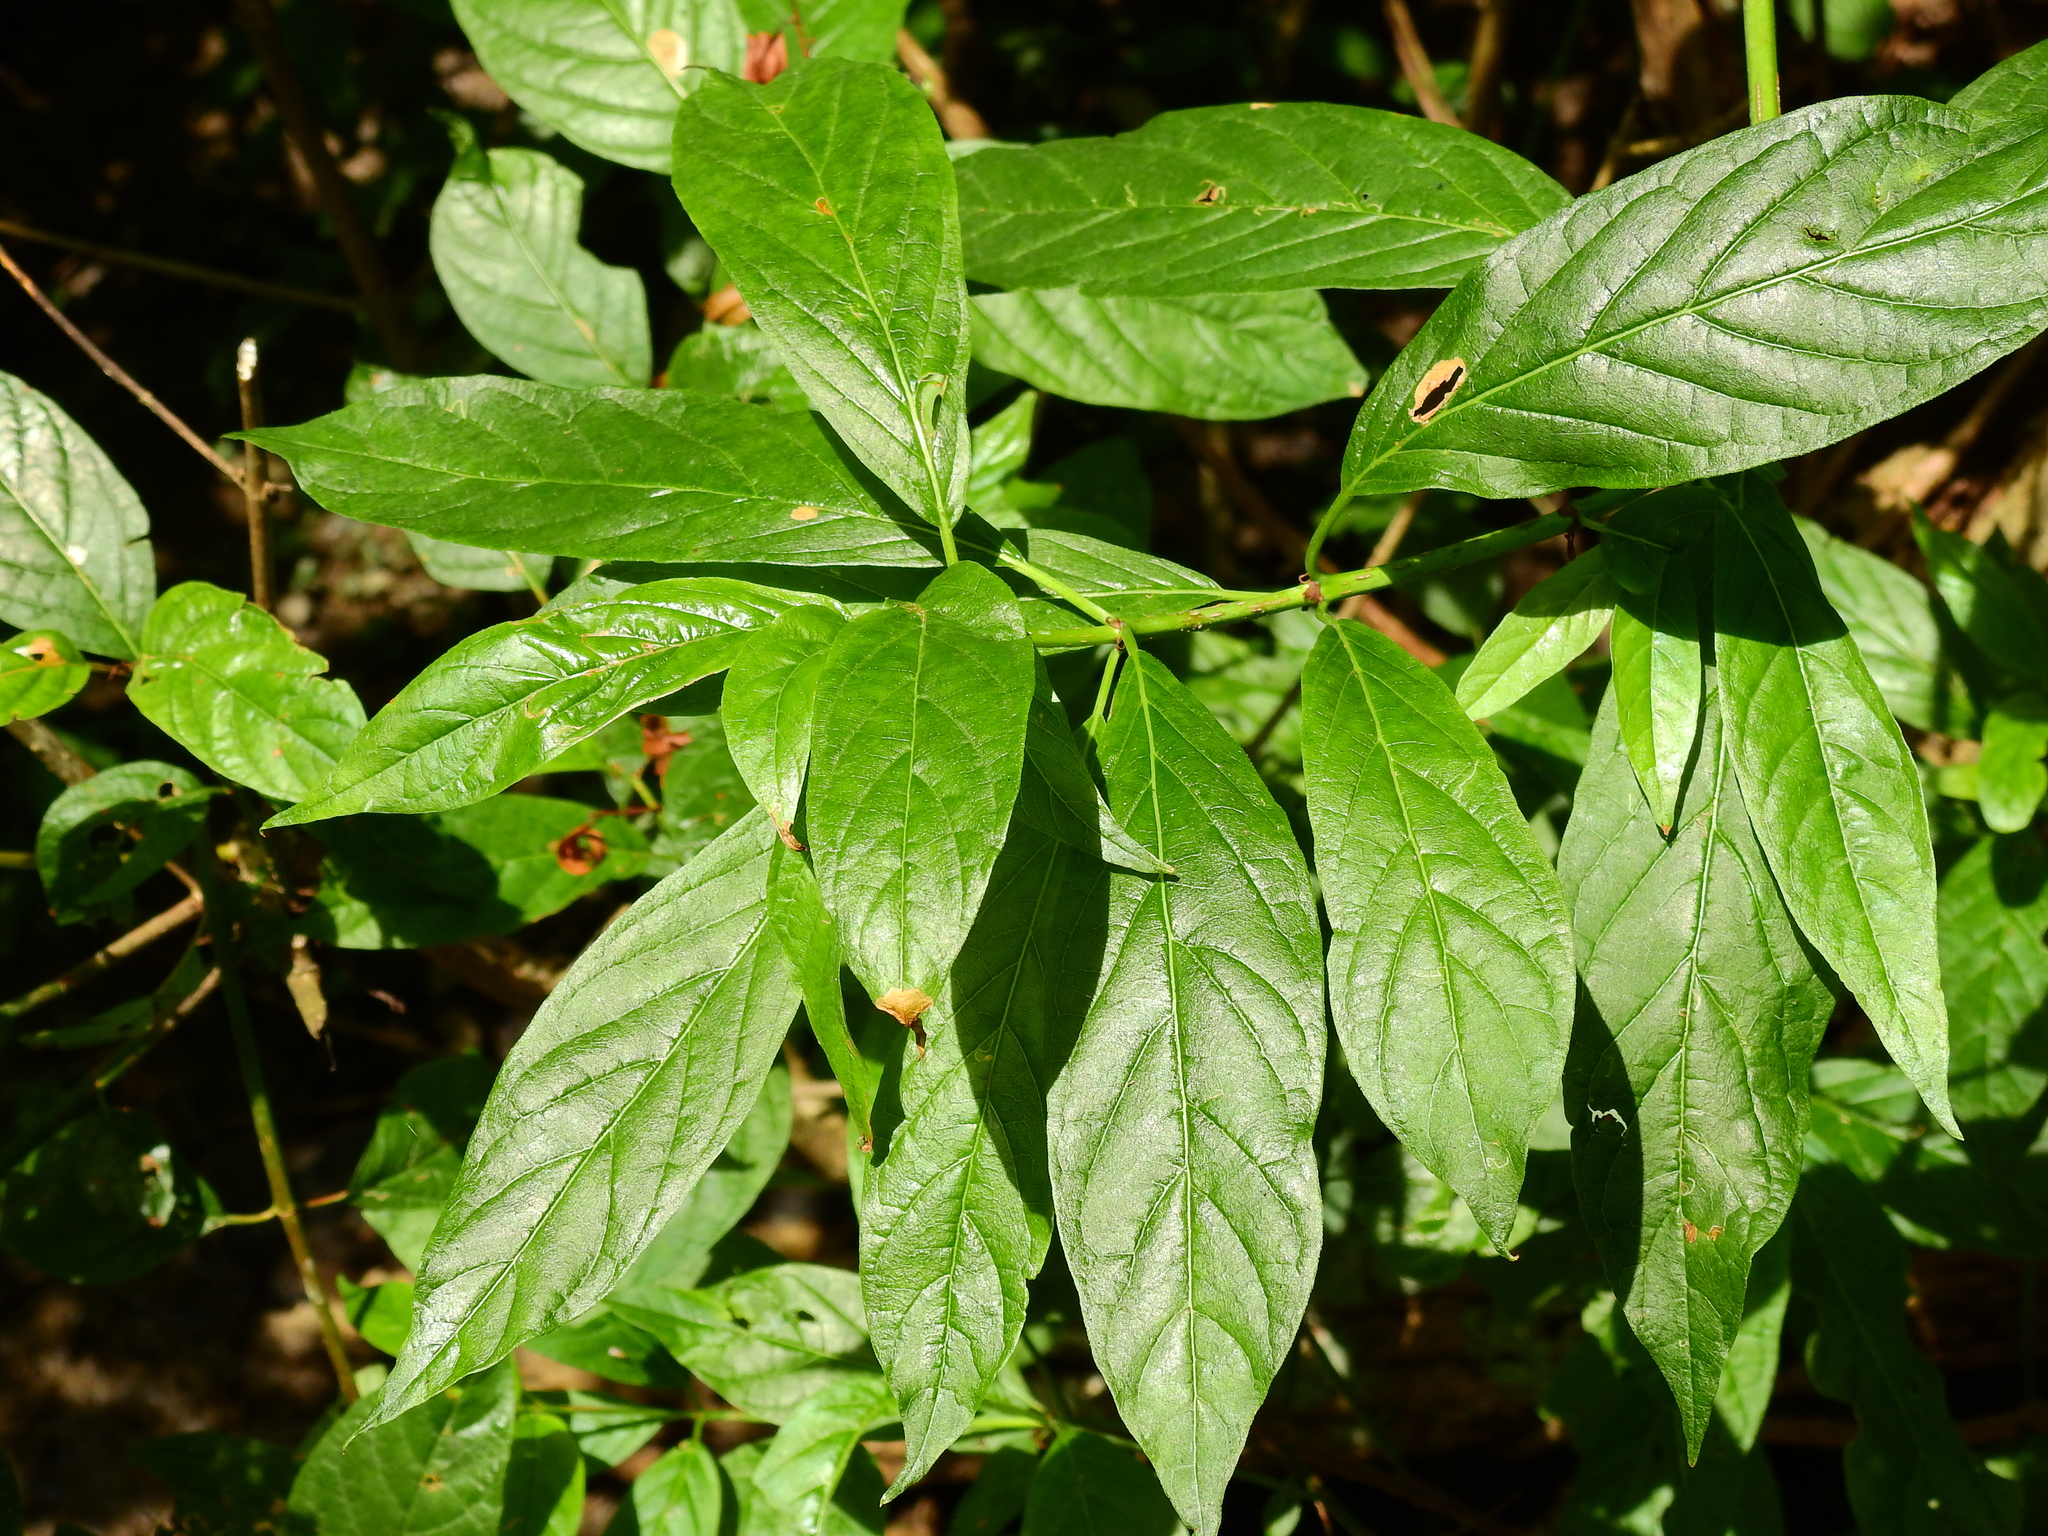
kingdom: Plantae
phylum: Tracheophyta
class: Magnoliopsida
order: Gentianales
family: Rubiaceae
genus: Cephalanthus
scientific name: Cephalanthus occidentalis
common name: Button-willow
